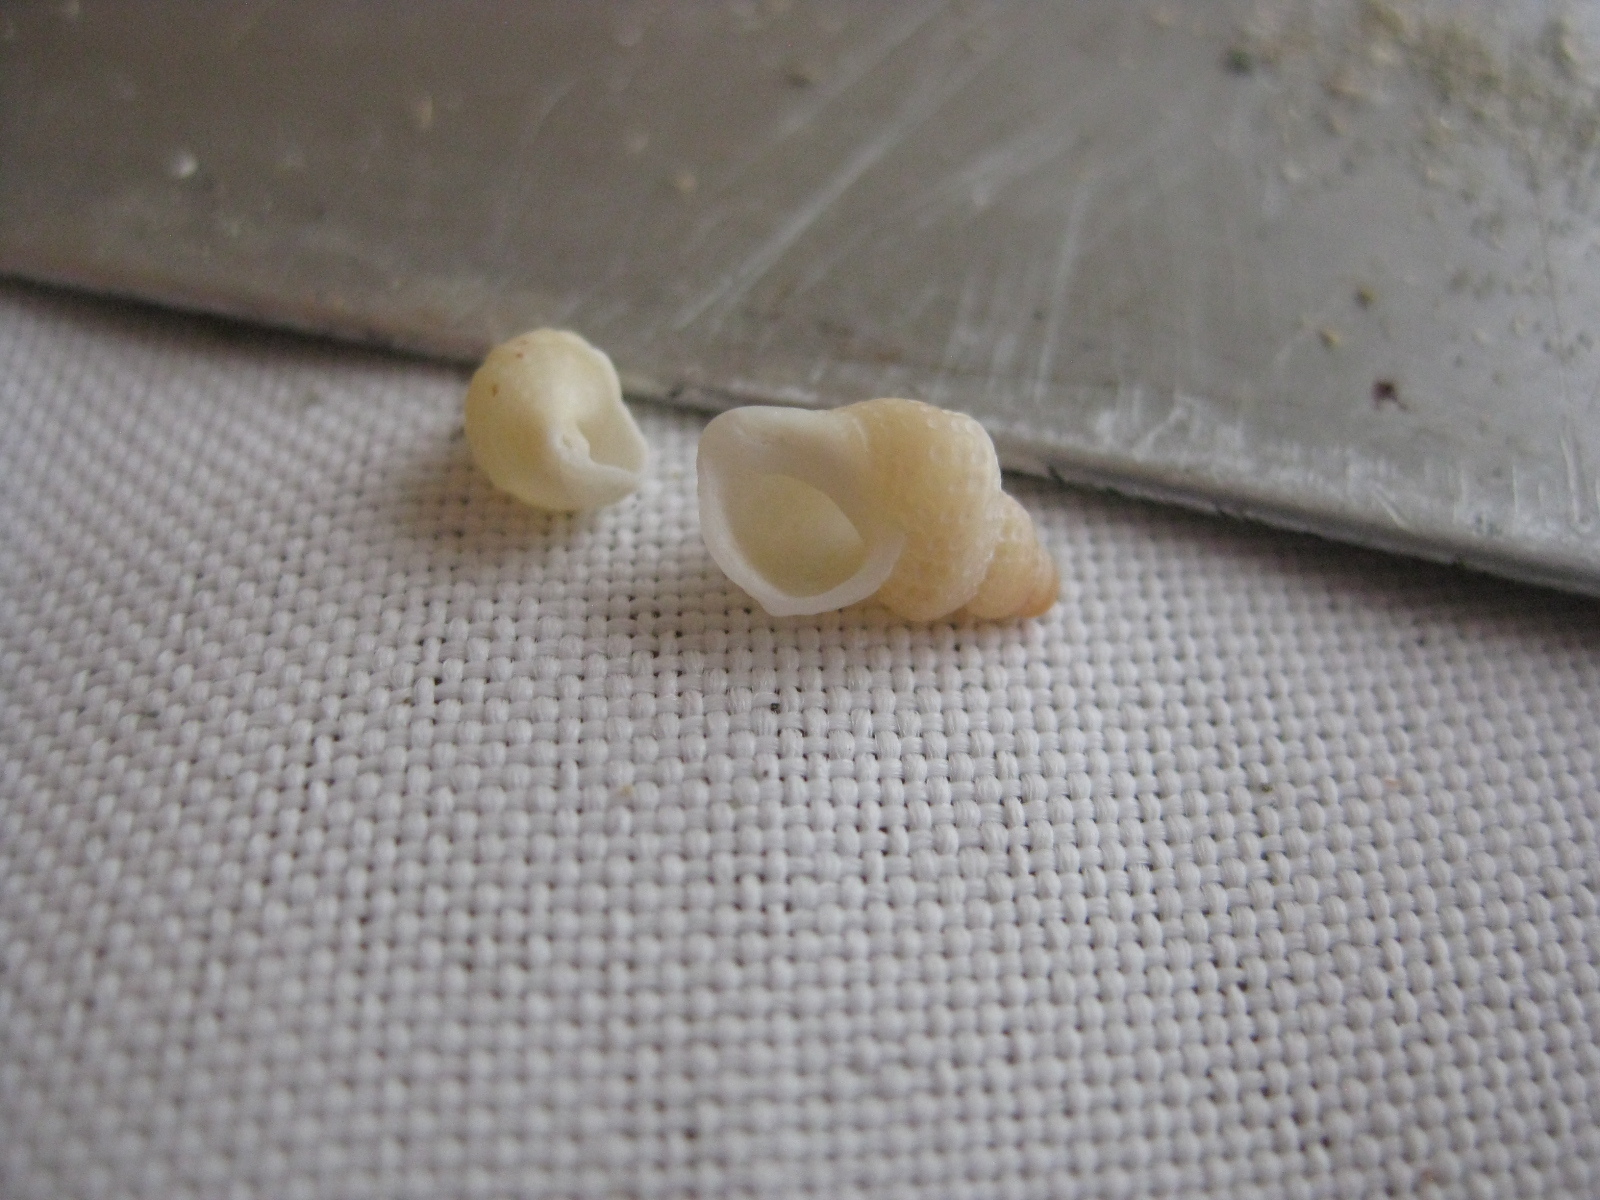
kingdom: Animalia
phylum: Mollusca
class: Gastropoda
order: Littorinimorpha
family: Capulidae
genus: Trichosirius
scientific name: Trichosirius inornatus
